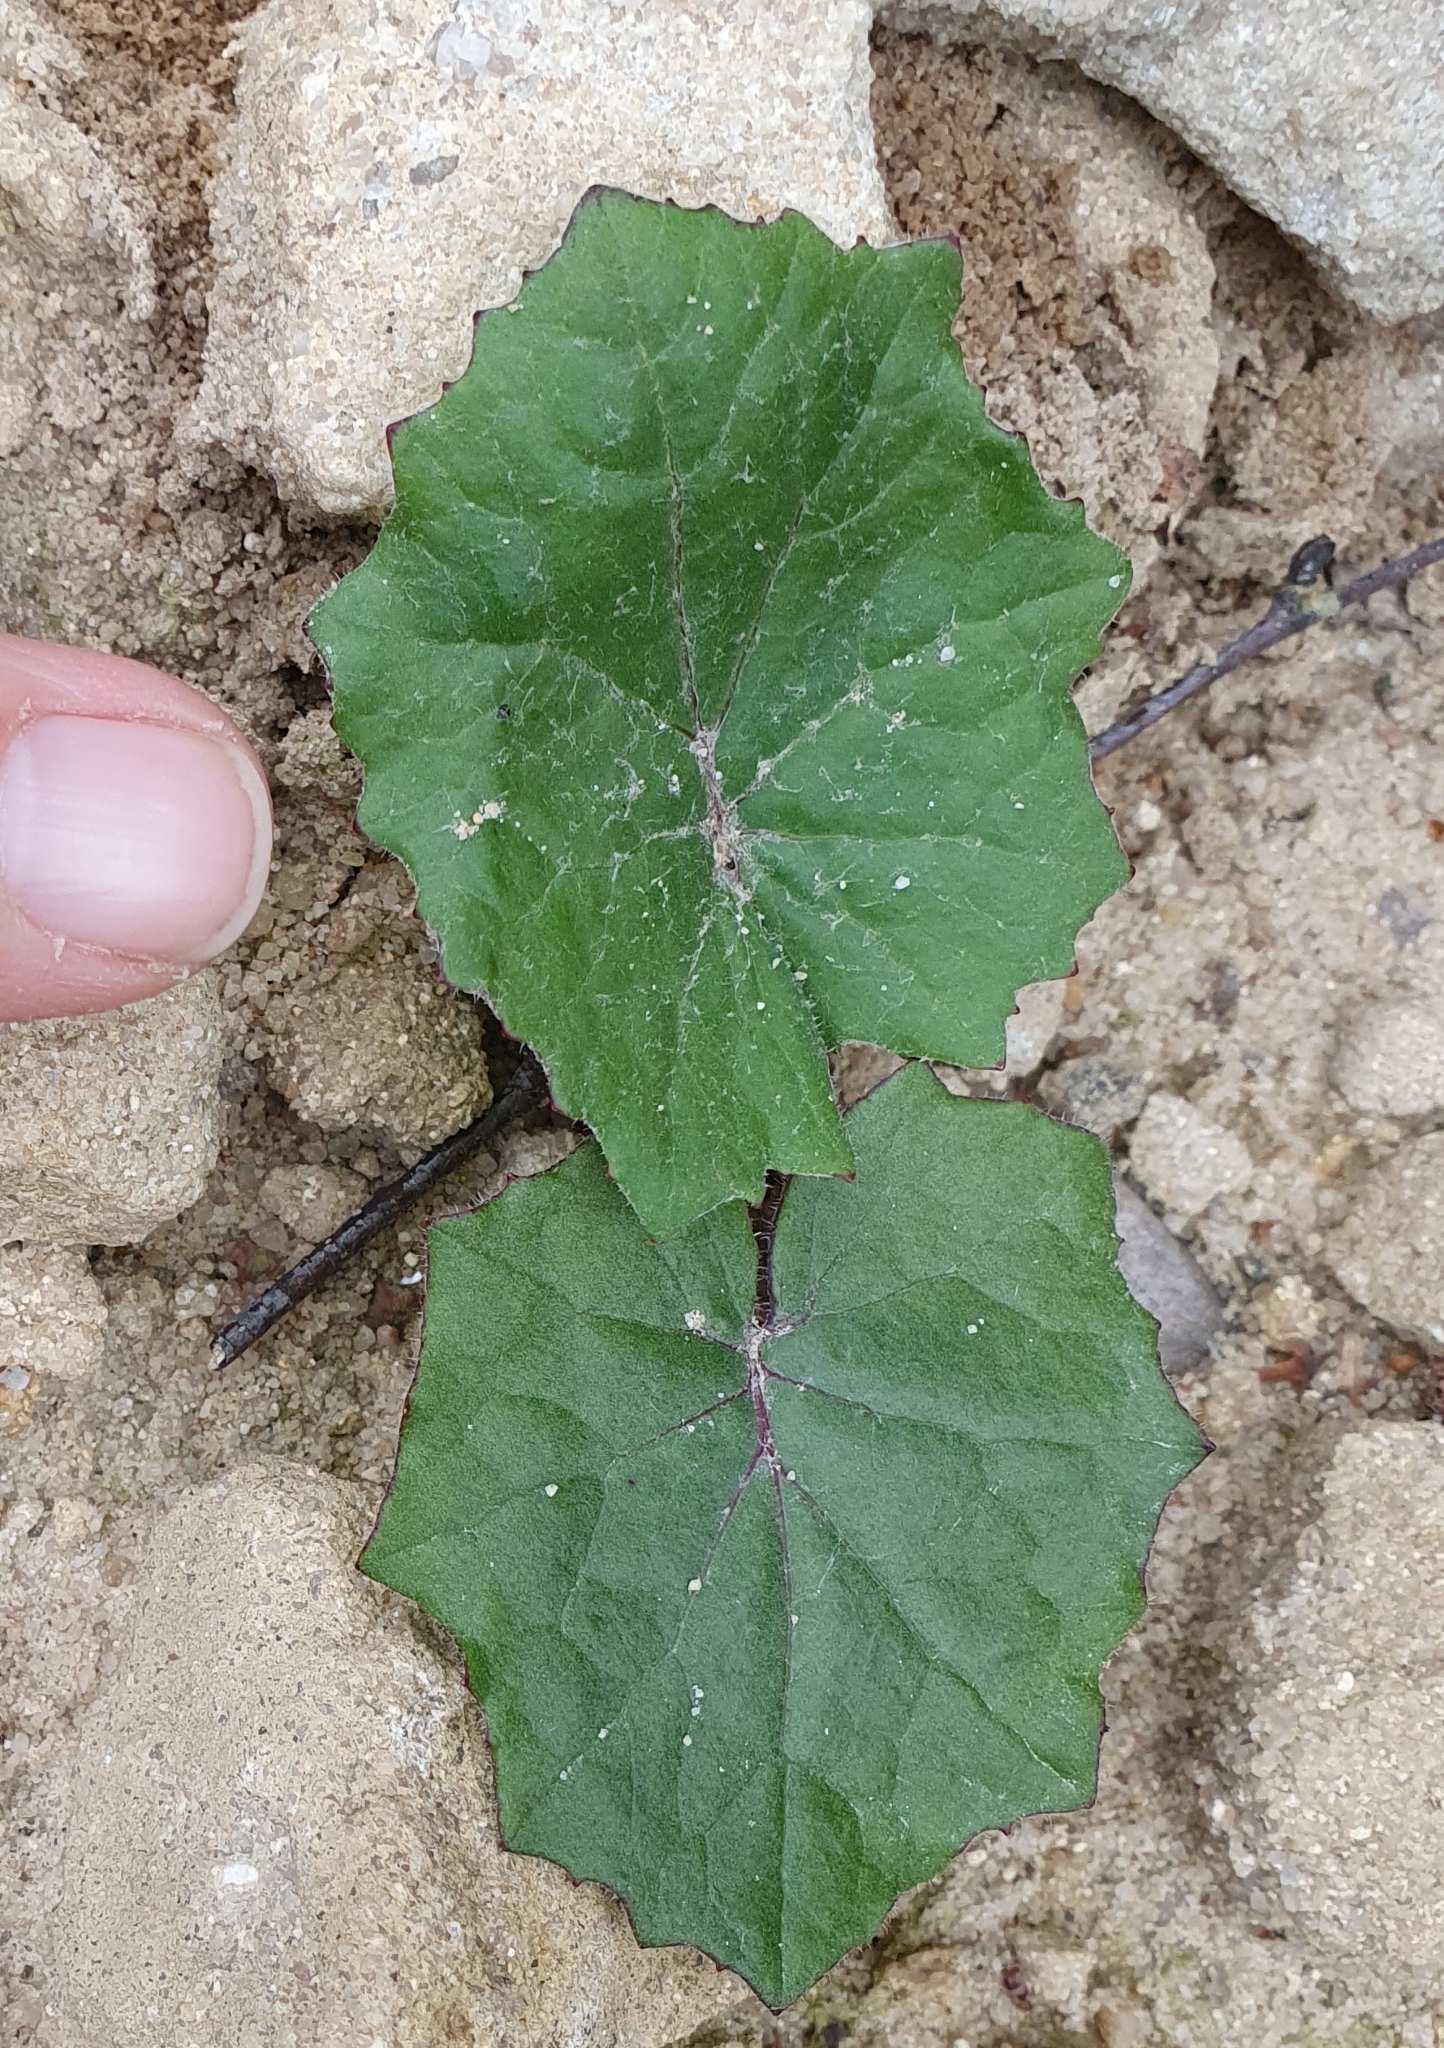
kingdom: Plantae
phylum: Tracheophyta
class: Magnoliopsida
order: Asterales
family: Asteraceae
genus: Tussilago
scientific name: Tussilago farfara
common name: Coltsfoot
